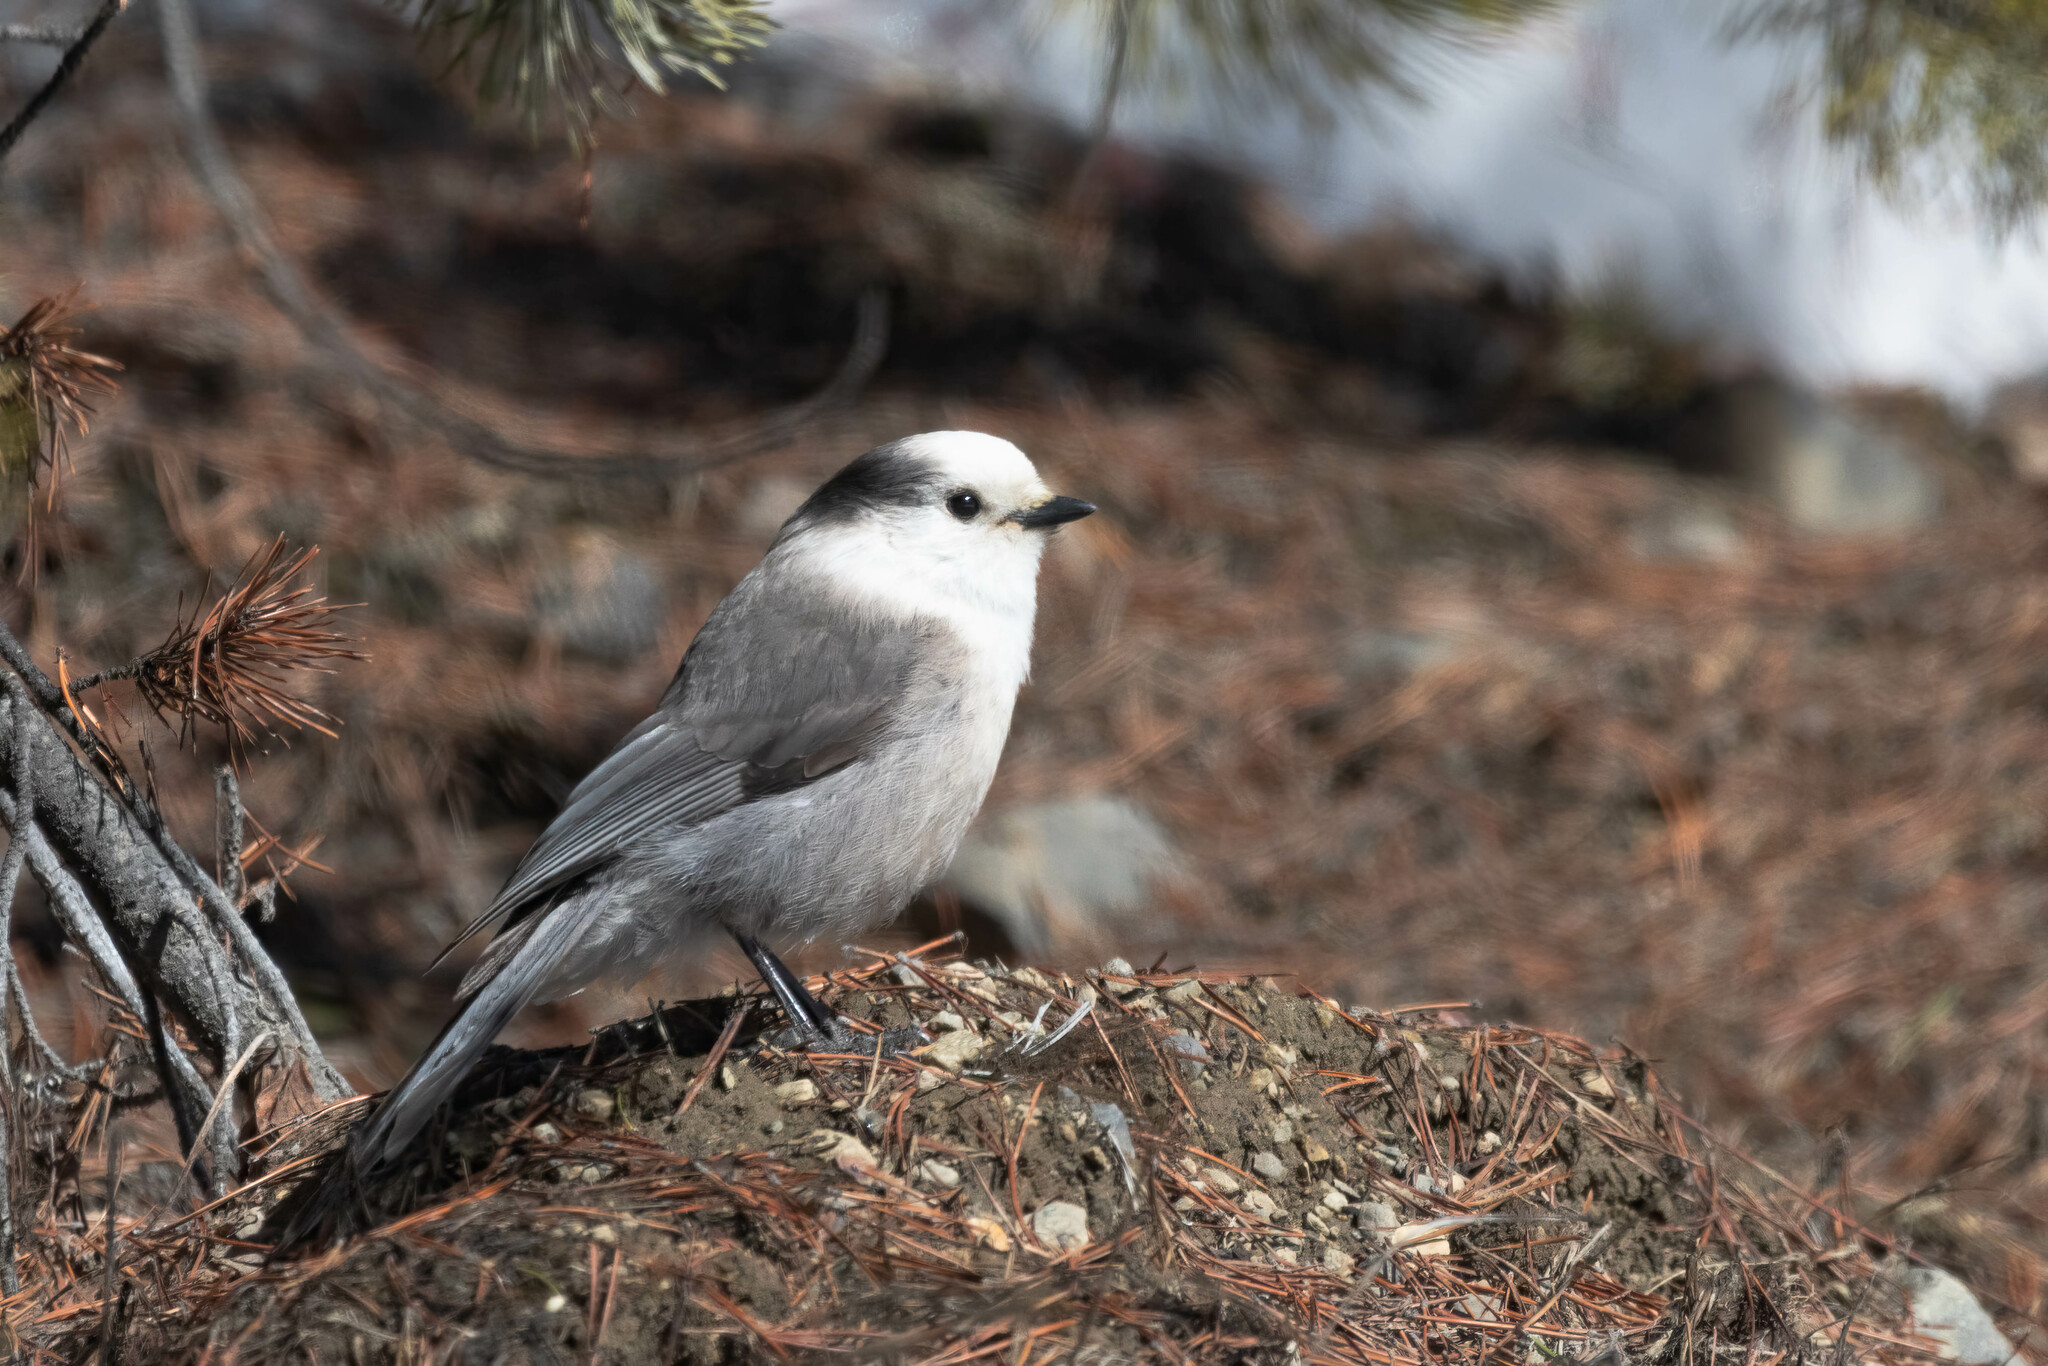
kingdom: Animalia
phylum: Chordata
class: Aves
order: Passeriformes
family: Corvidae
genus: Perisoreus
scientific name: Perisoreus canadensis
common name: Gray jay
